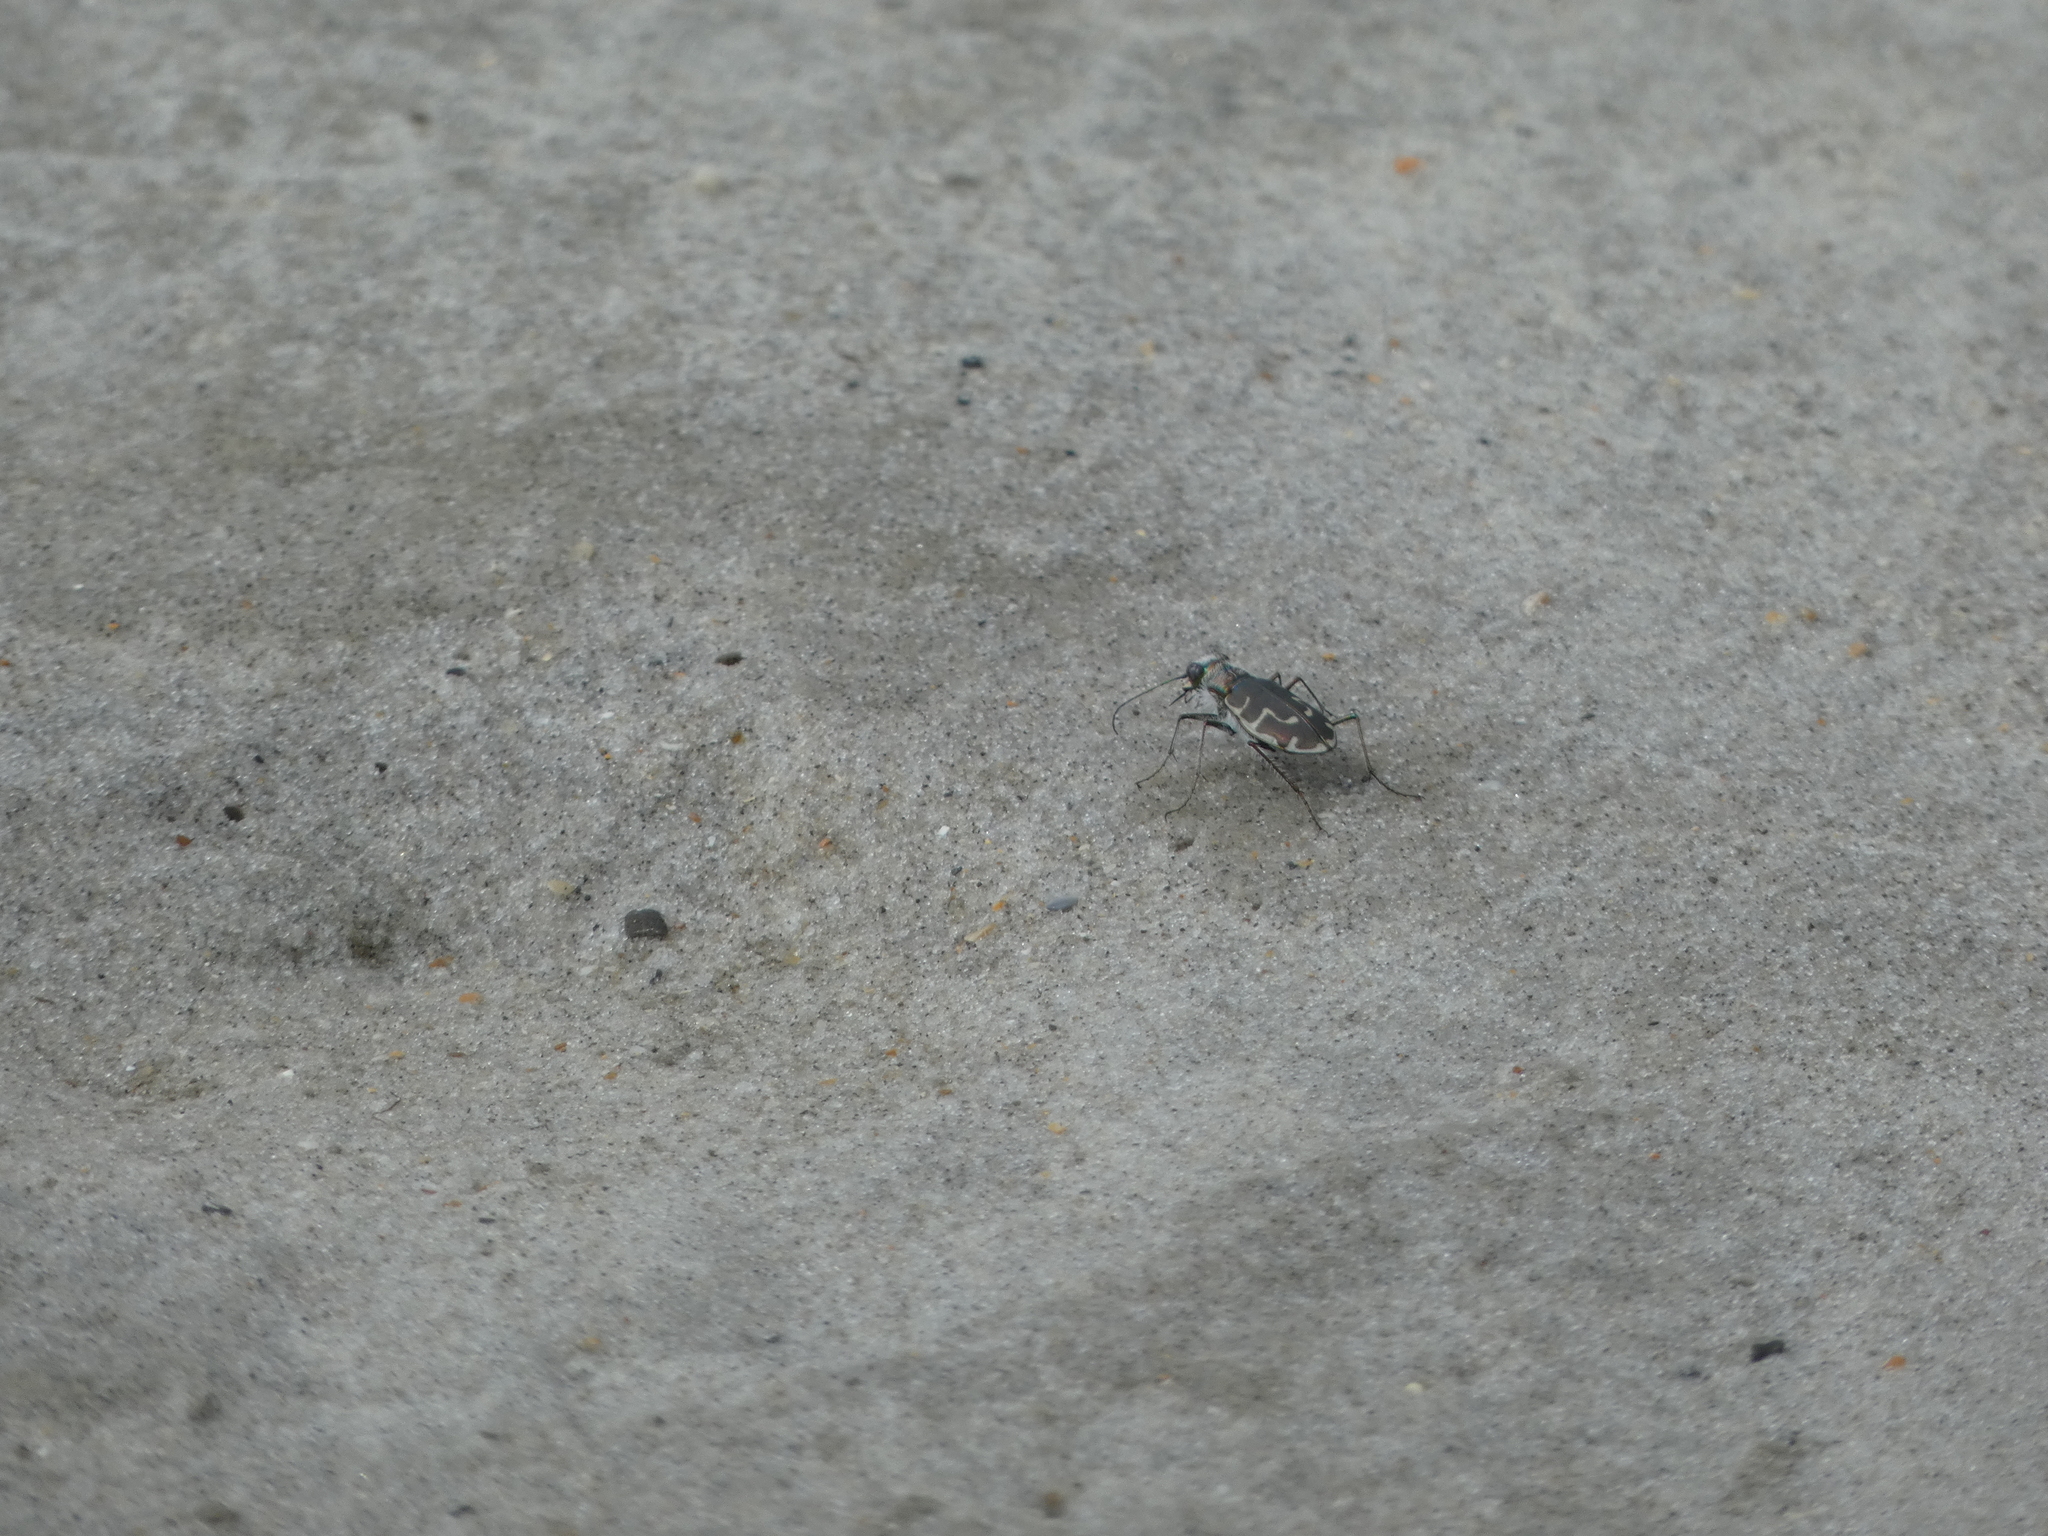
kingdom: Animalia
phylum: Arthropoda
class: Insecta
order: Coleoptera
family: Carabidae
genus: Cicindela
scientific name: Cicindela hirticollis
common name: Hairy-necked tiger beetle
